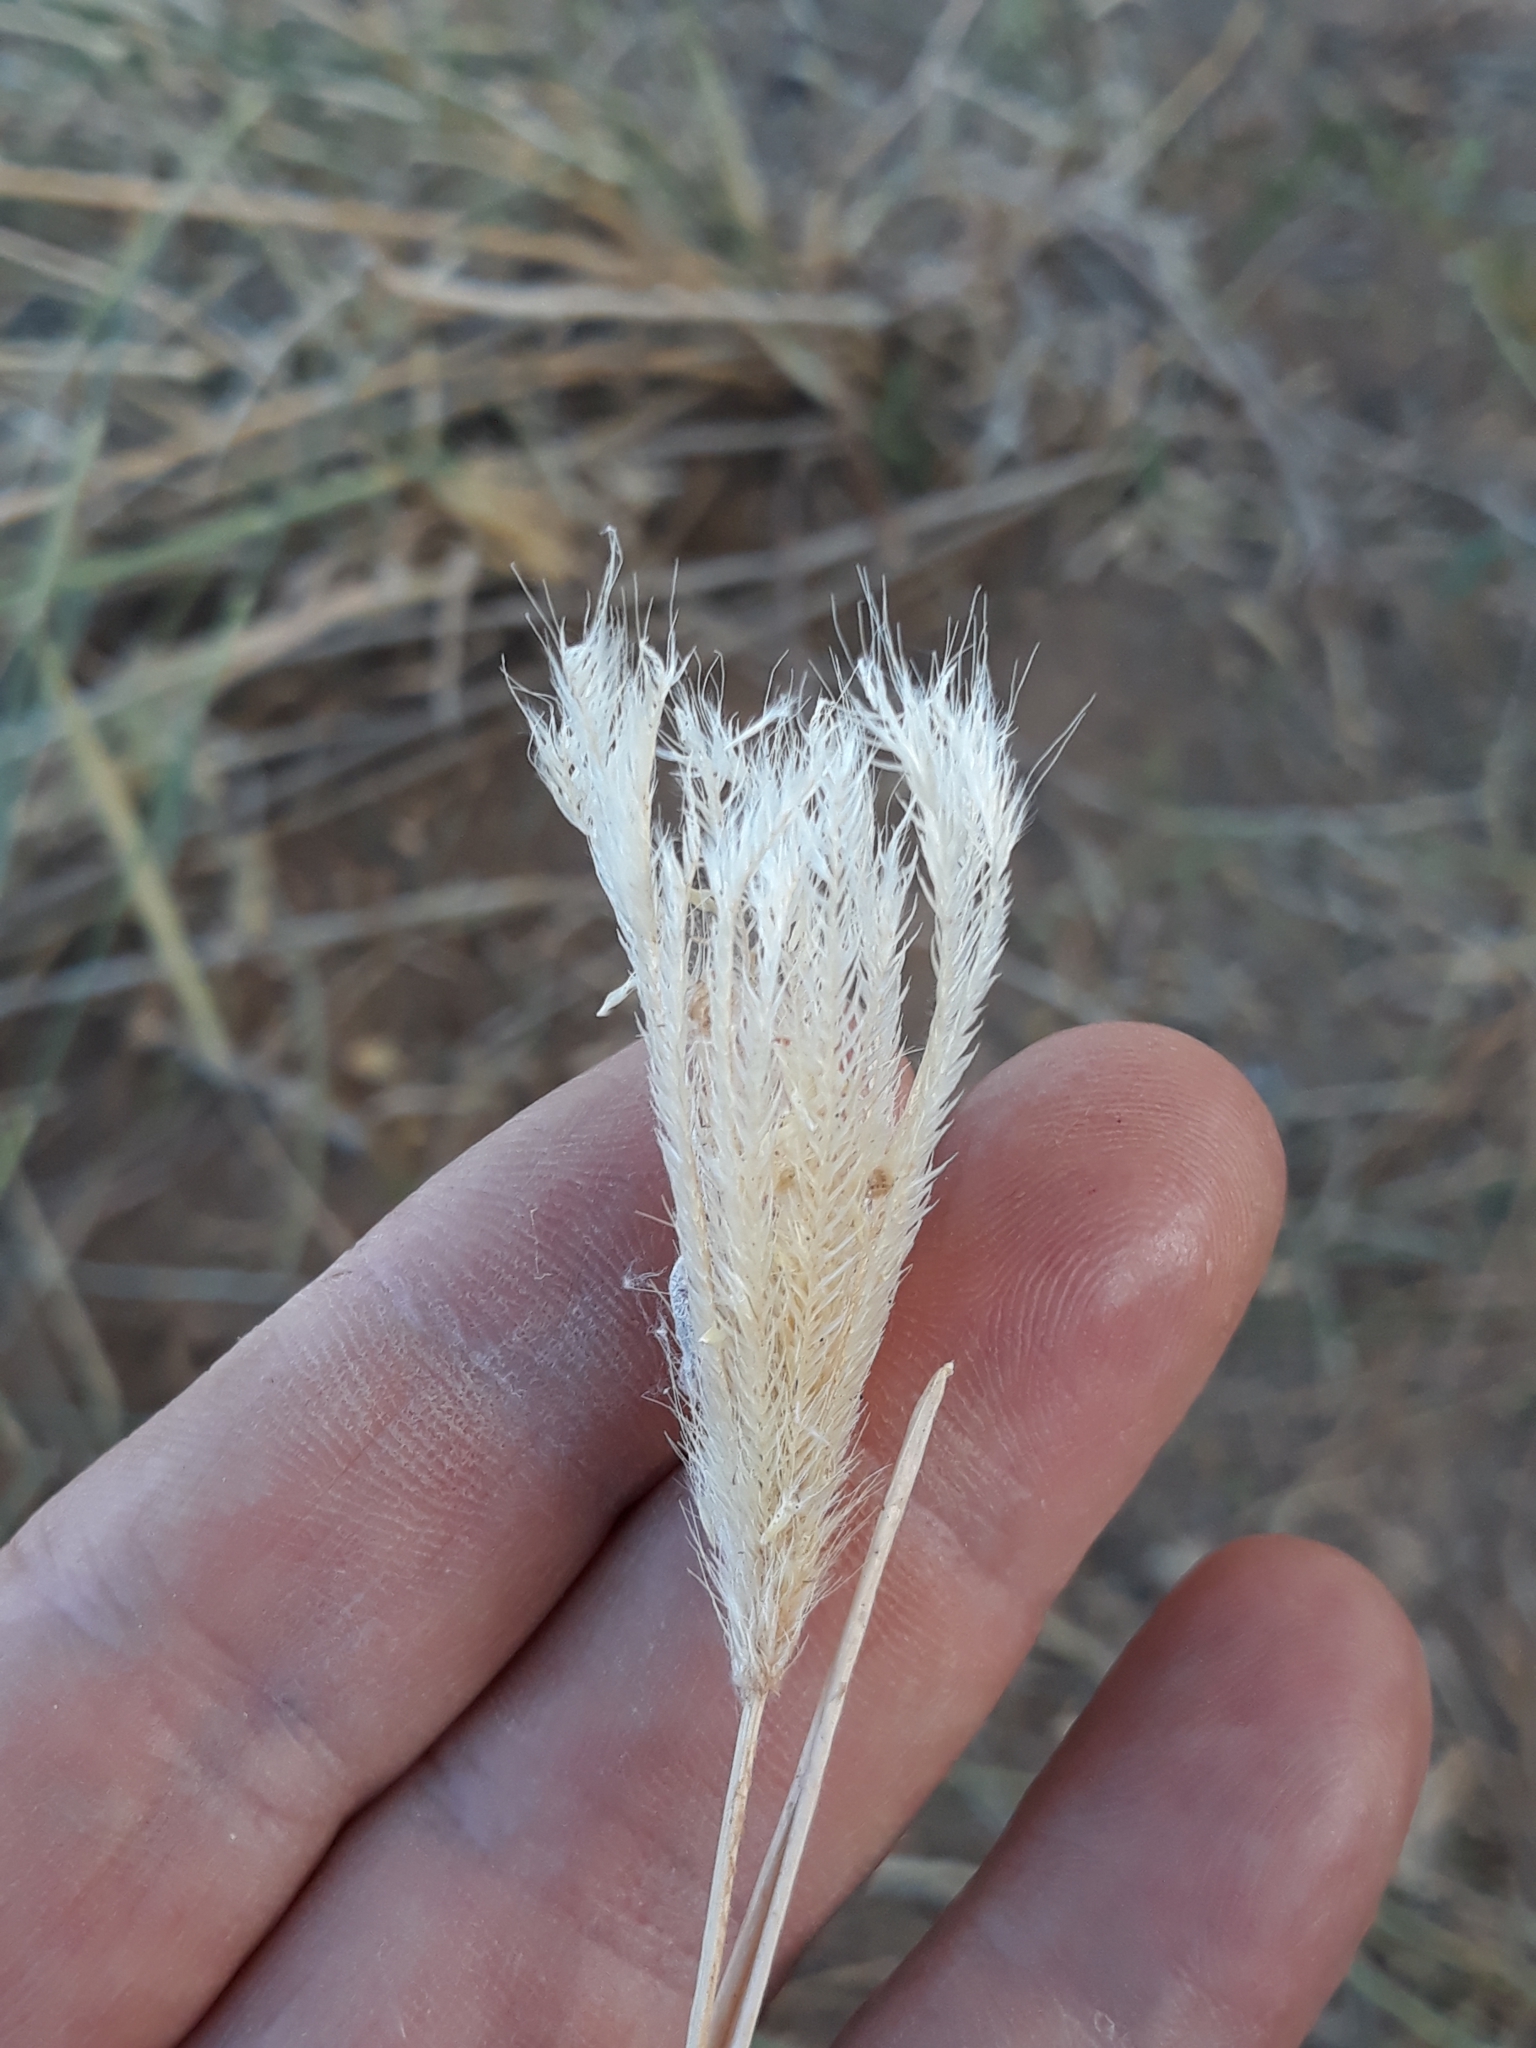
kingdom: Plantae
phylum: Tracheophyta
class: Liliopsida
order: Poales
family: Poaceae
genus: Chloris
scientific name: Chloris virgata
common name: Feathery rhodes-grass
